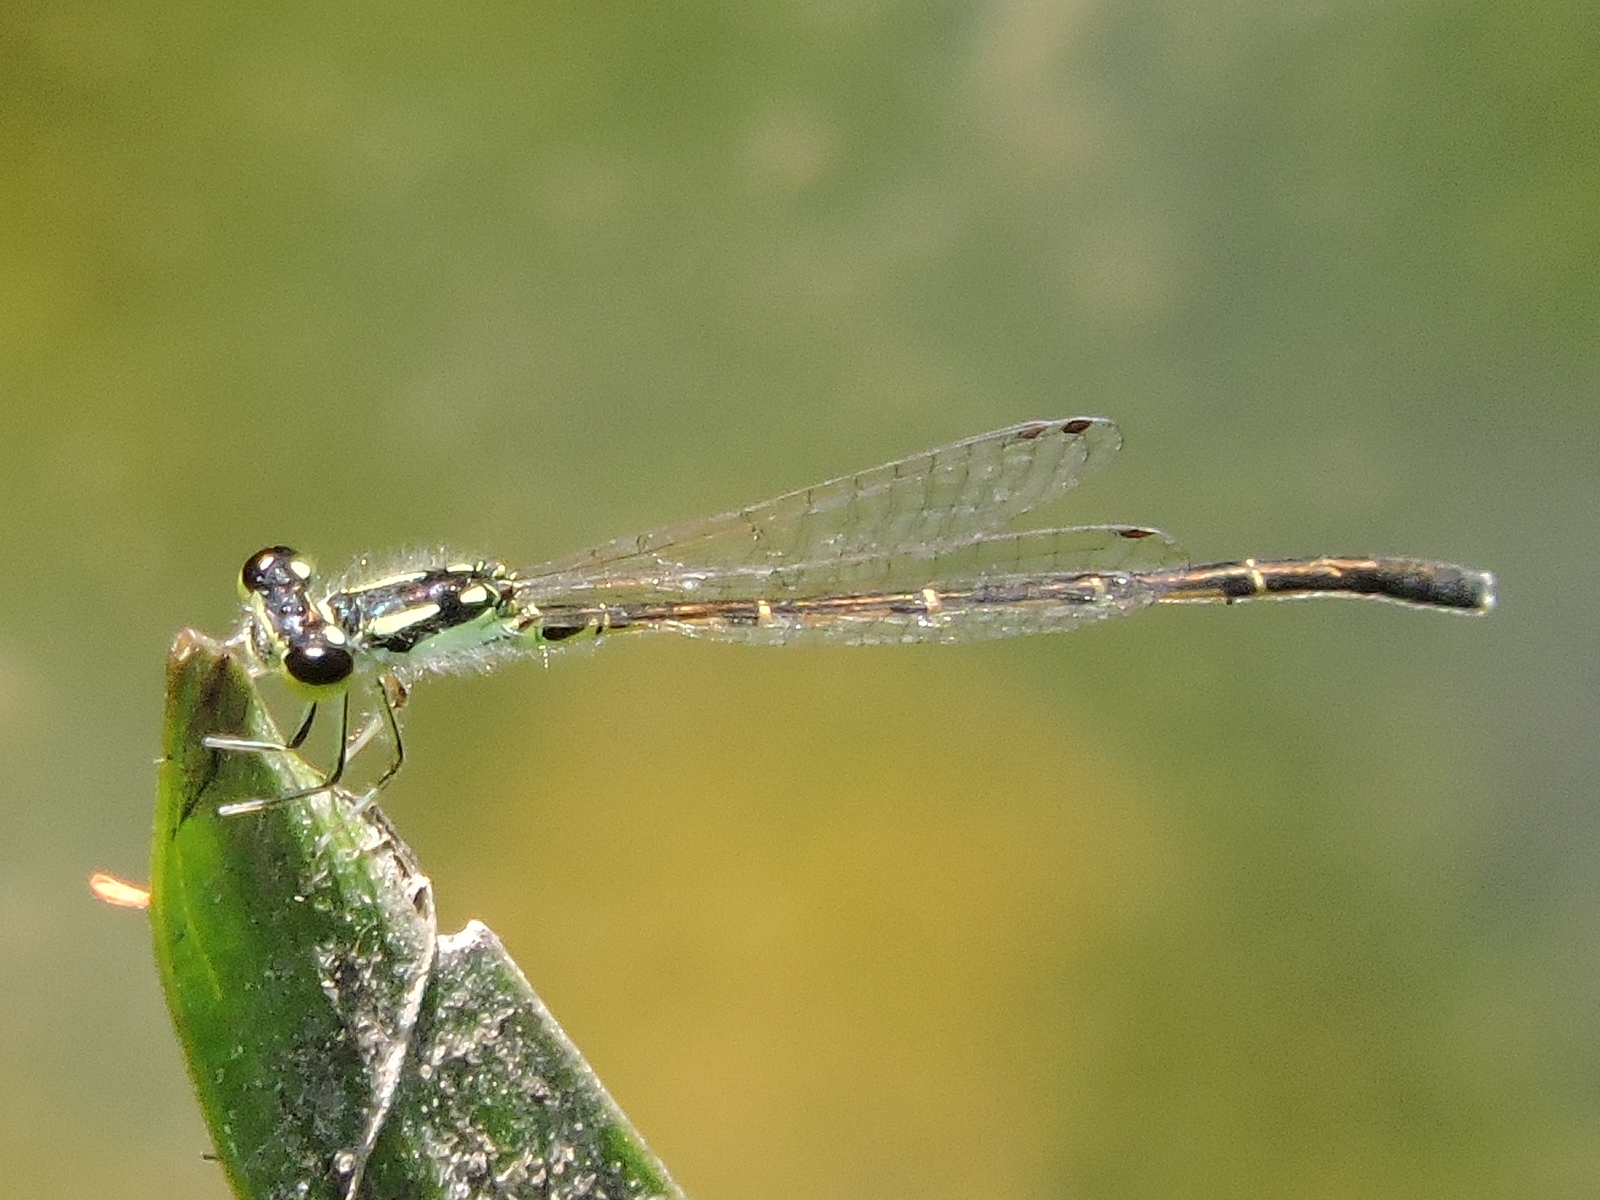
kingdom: Animalia
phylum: Arthropoda
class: Insecta
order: Odonata
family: Coenagrionidae
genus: Ischnura
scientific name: Ischnura posita
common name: Fragile forktail
